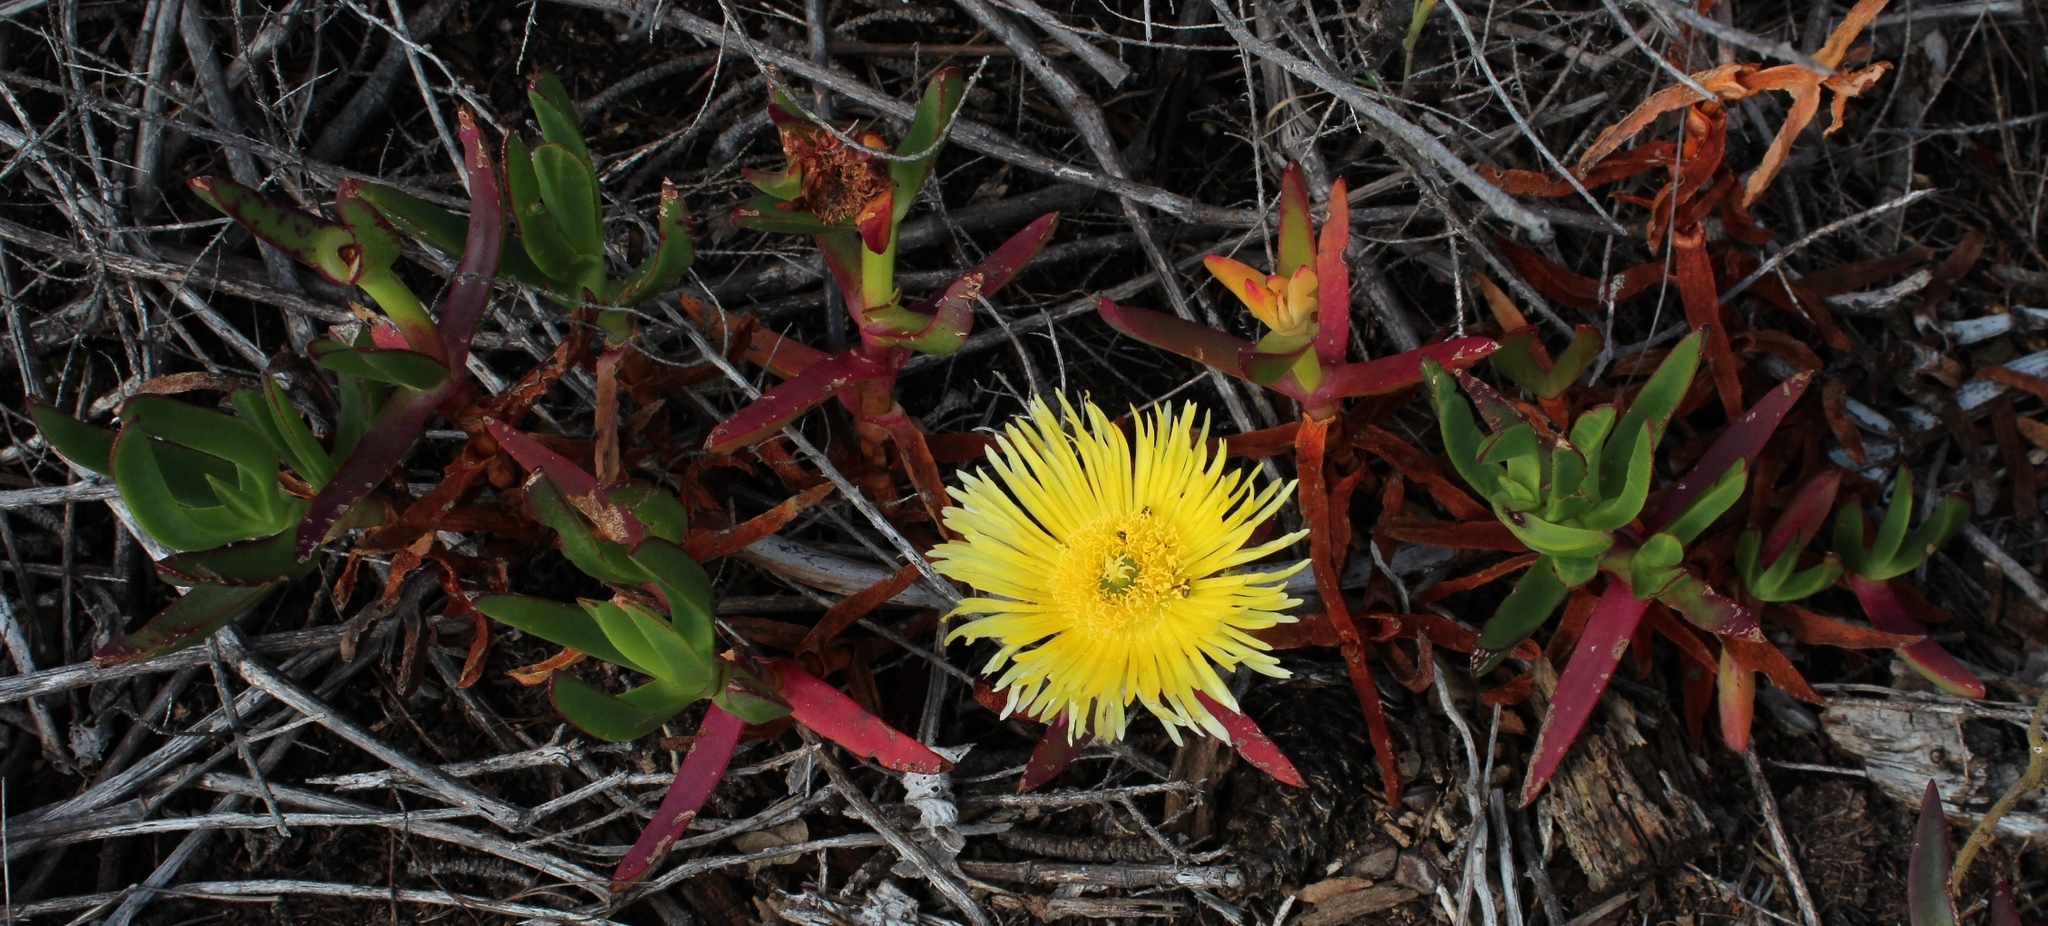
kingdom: Plantae
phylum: Tracheophyta
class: Magnoliopsida
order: Caryophyllales
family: Aizoaceae
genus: Carpobrotus
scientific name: Carpobrotus edulis
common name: Hottentot-fig
